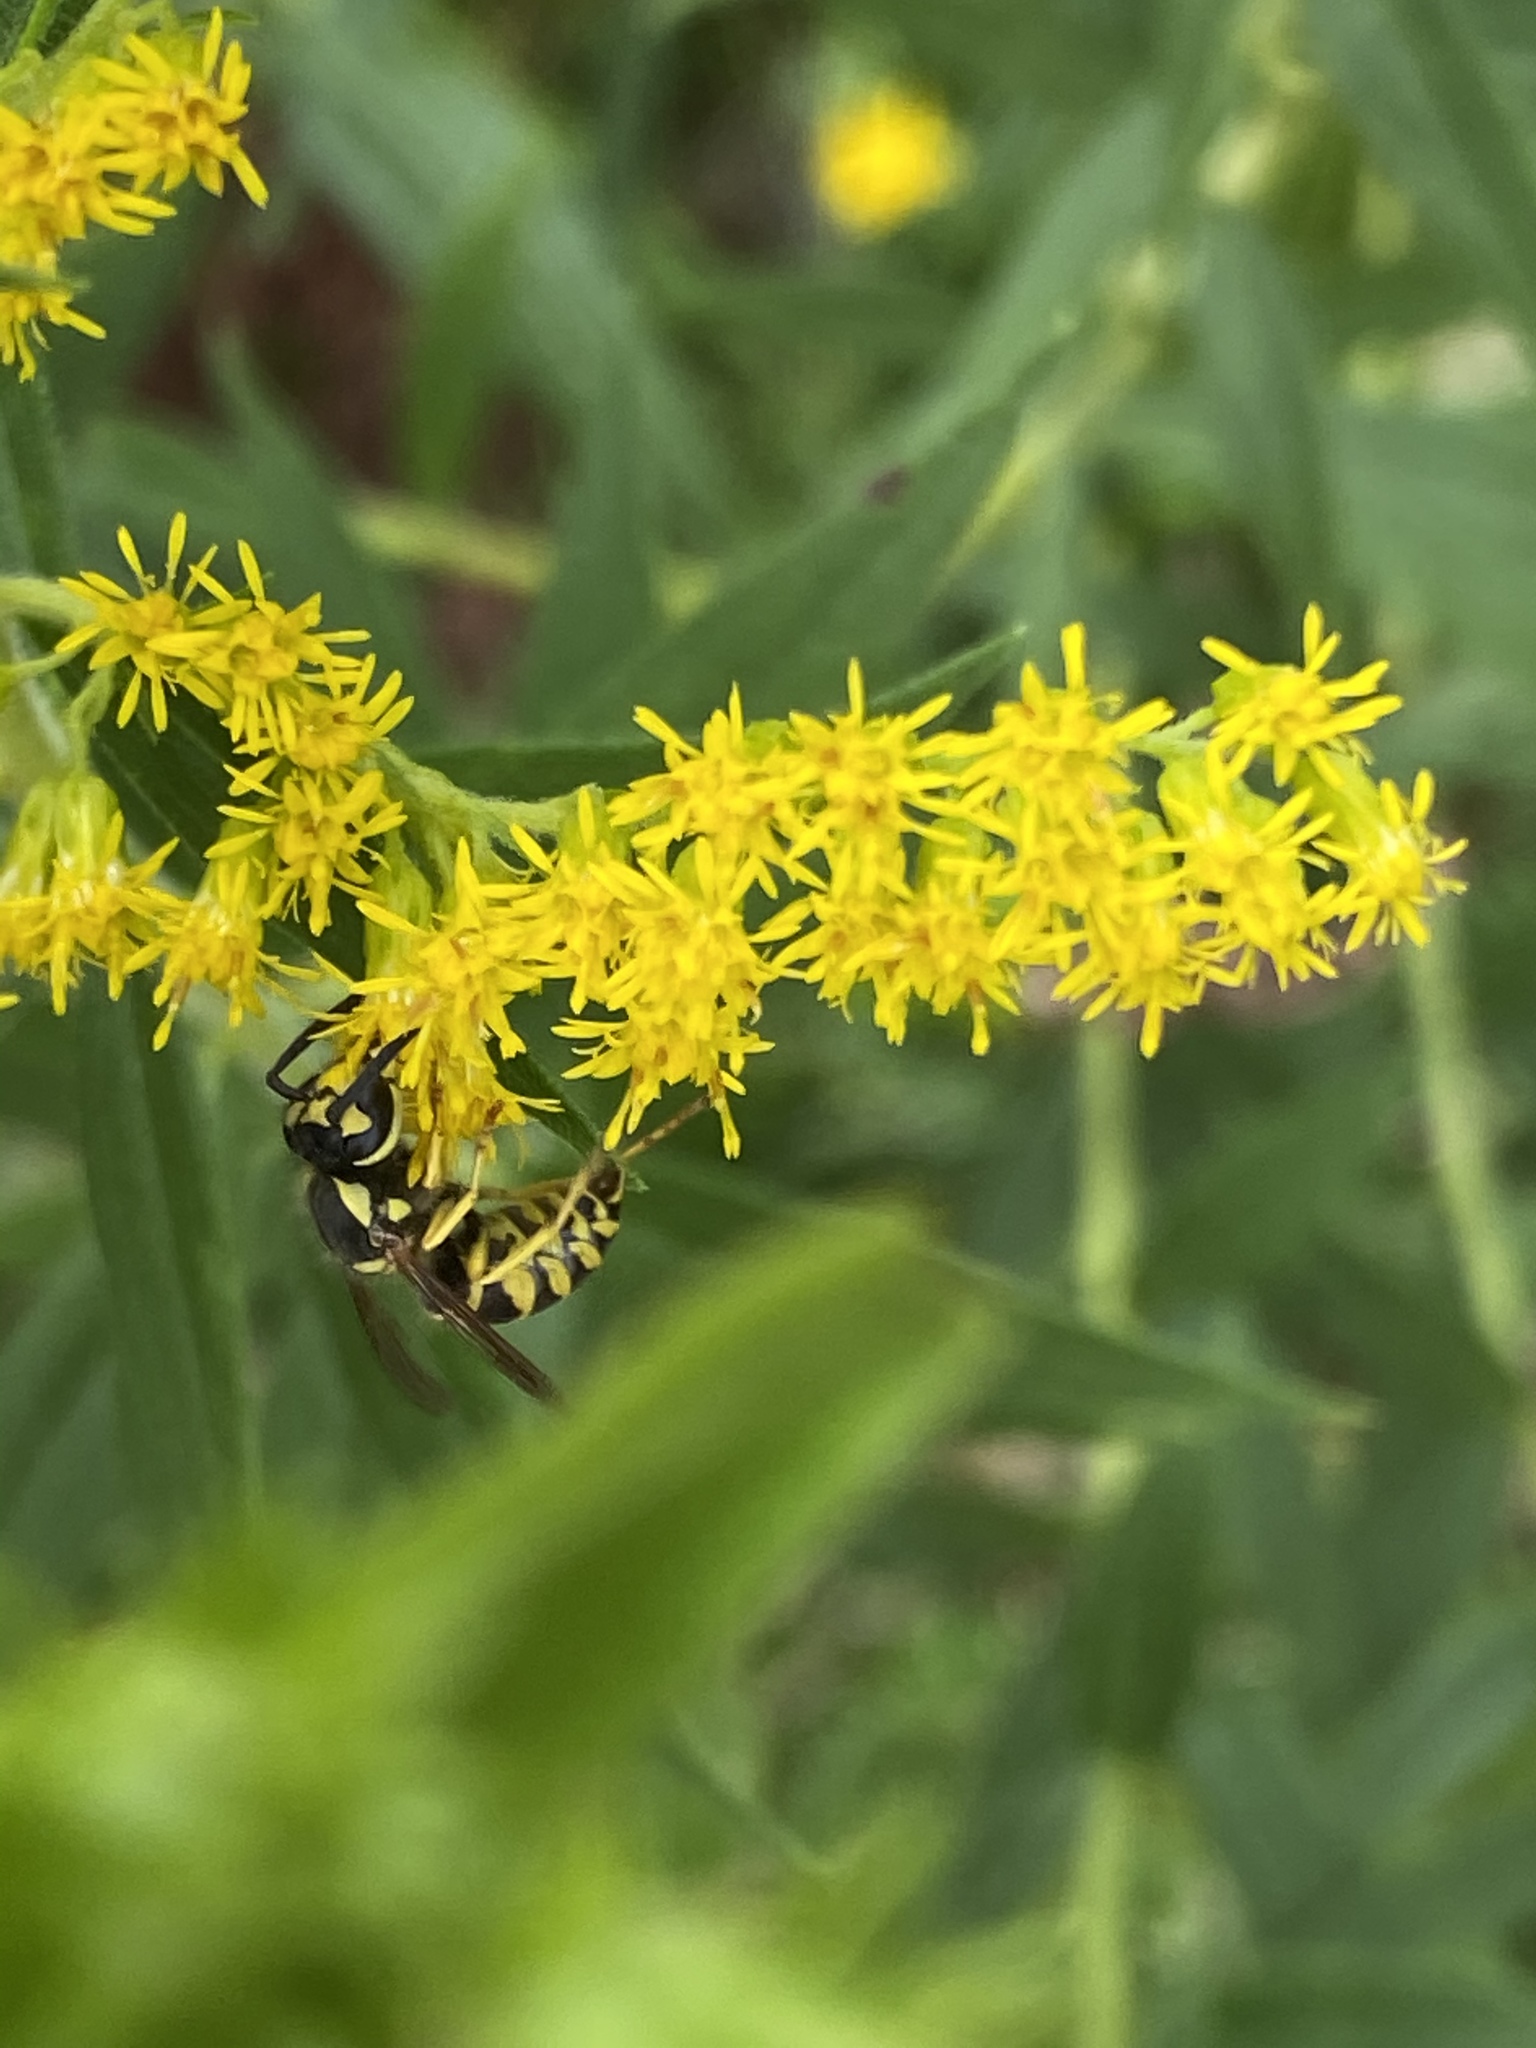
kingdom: Animalia
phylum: Arthropoda
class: Insecta
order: Hymenoptera
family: Vespidae
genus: Vespula
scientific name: Vespula
